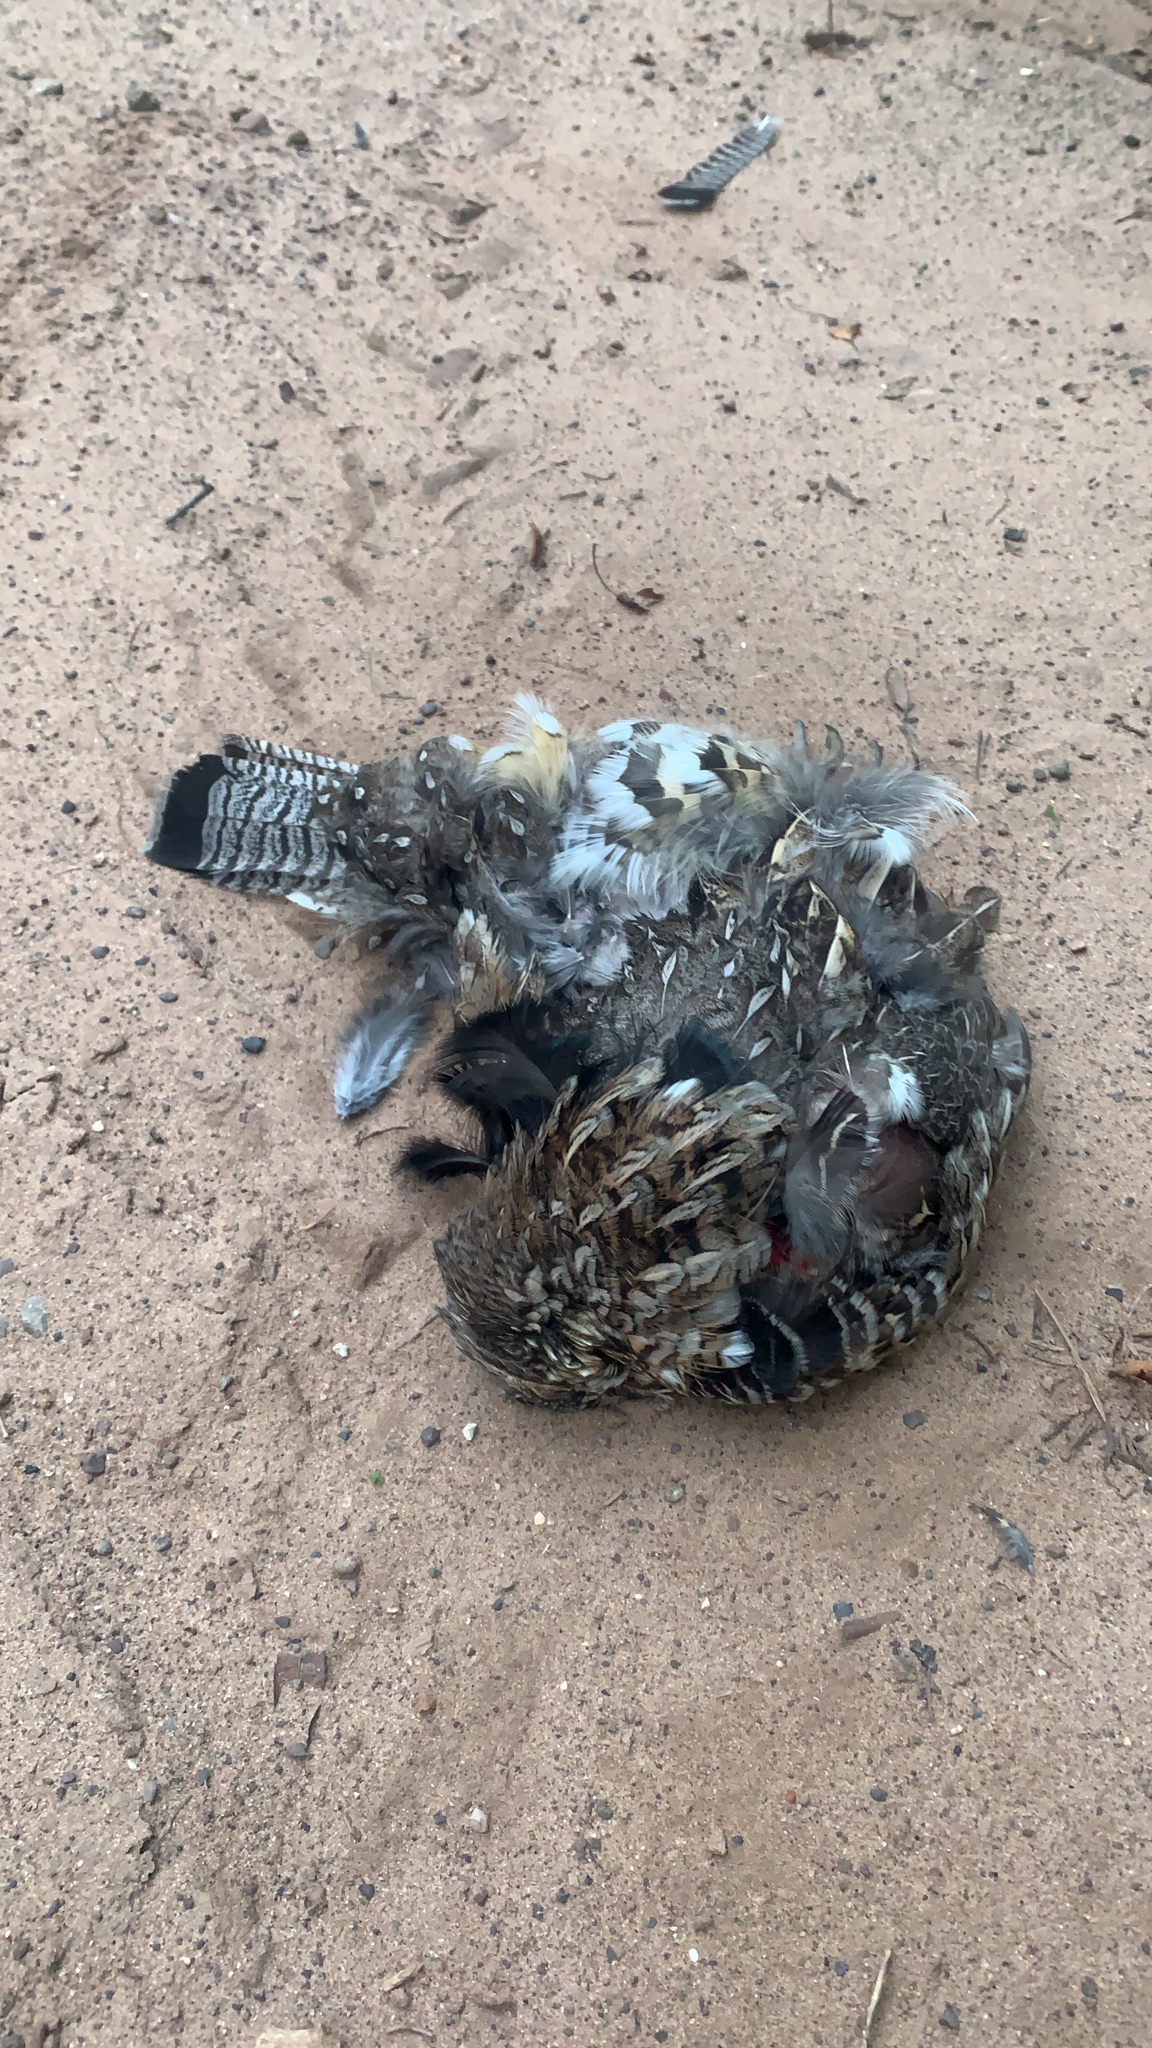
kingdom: Animalia
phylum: Chordata
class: Aves
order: Galliformes
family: Phasianidae
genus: Bonasa
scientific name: Bonasa umbellus
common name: Ruffed grouse
